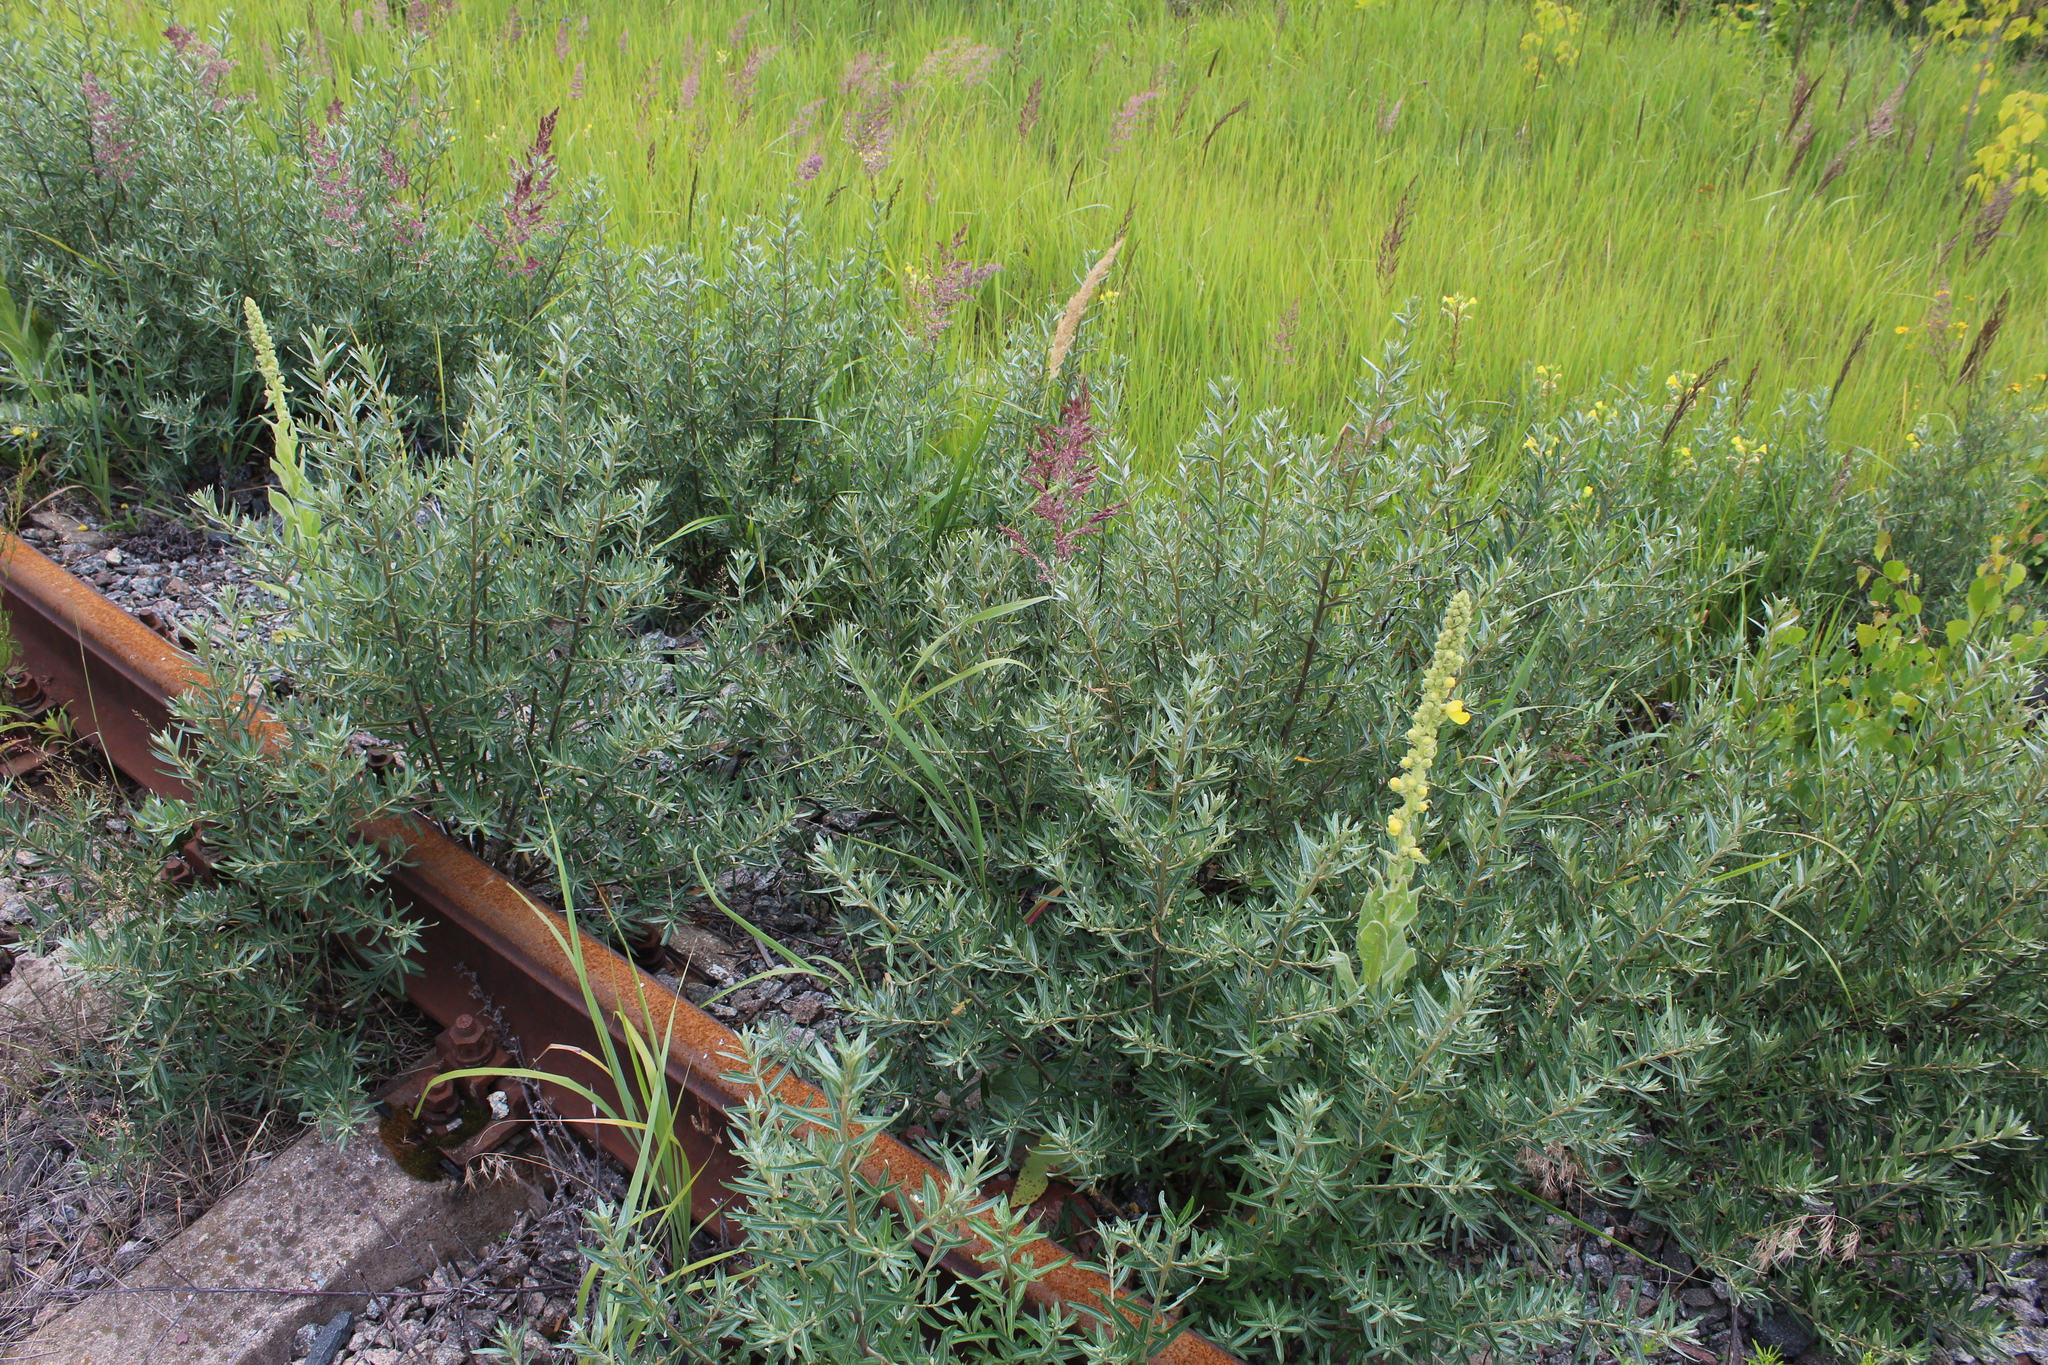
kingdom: Plantae
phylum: Tracheophyta
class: Magnoliopsida
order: Rosales
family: Elaeagnaceae
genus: Hippophae
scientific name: Hippophae rhamnoides
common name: Sea-buckthorn
